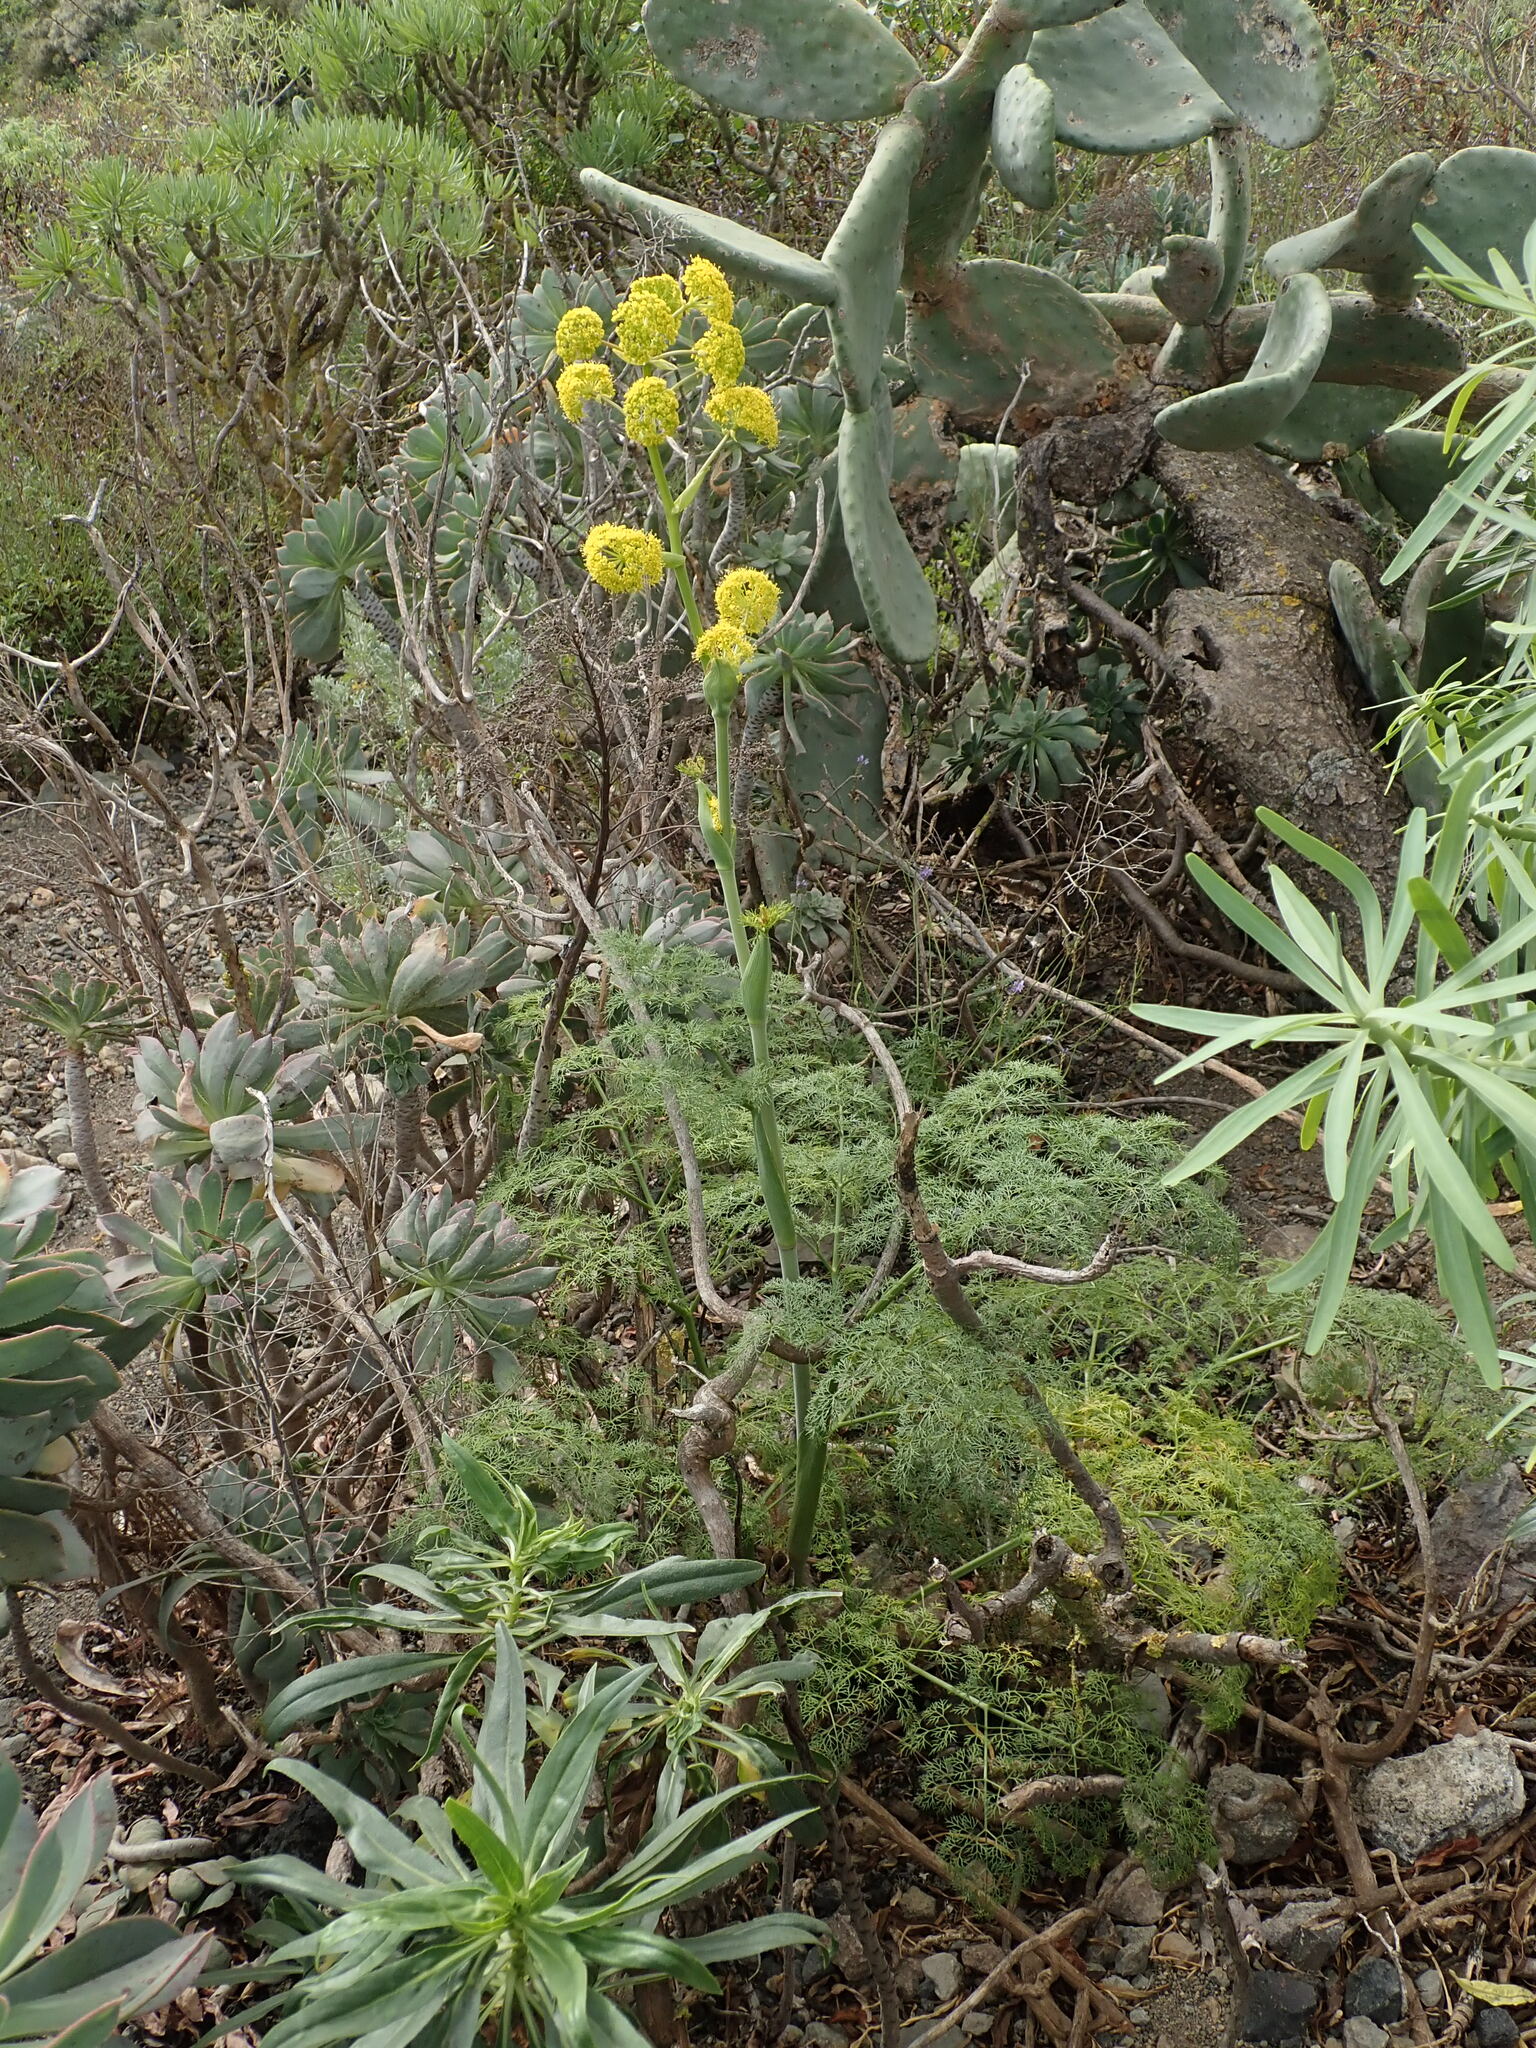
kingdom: Plantae
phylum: Tracheophyta
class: Magnoliopsida
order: Apiales
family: Apiaceae
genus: Ferula
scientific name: Ferula communis
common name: Giant fennel
